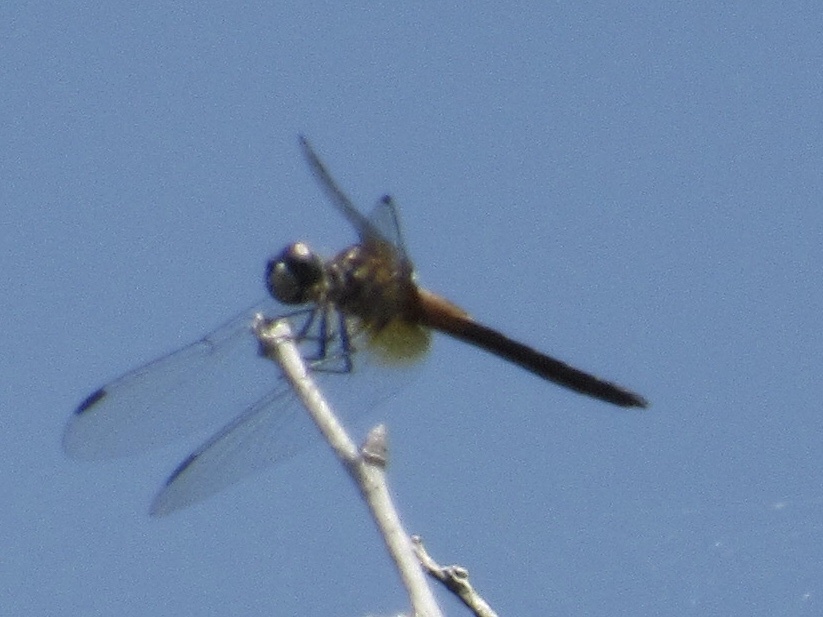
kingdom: Animalia
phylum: Arthropoda
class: Insecta
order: Odonata
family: Libellulidae
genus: Pachydiplax
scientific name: Pachydiplax longipennis
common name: Blue dasher
